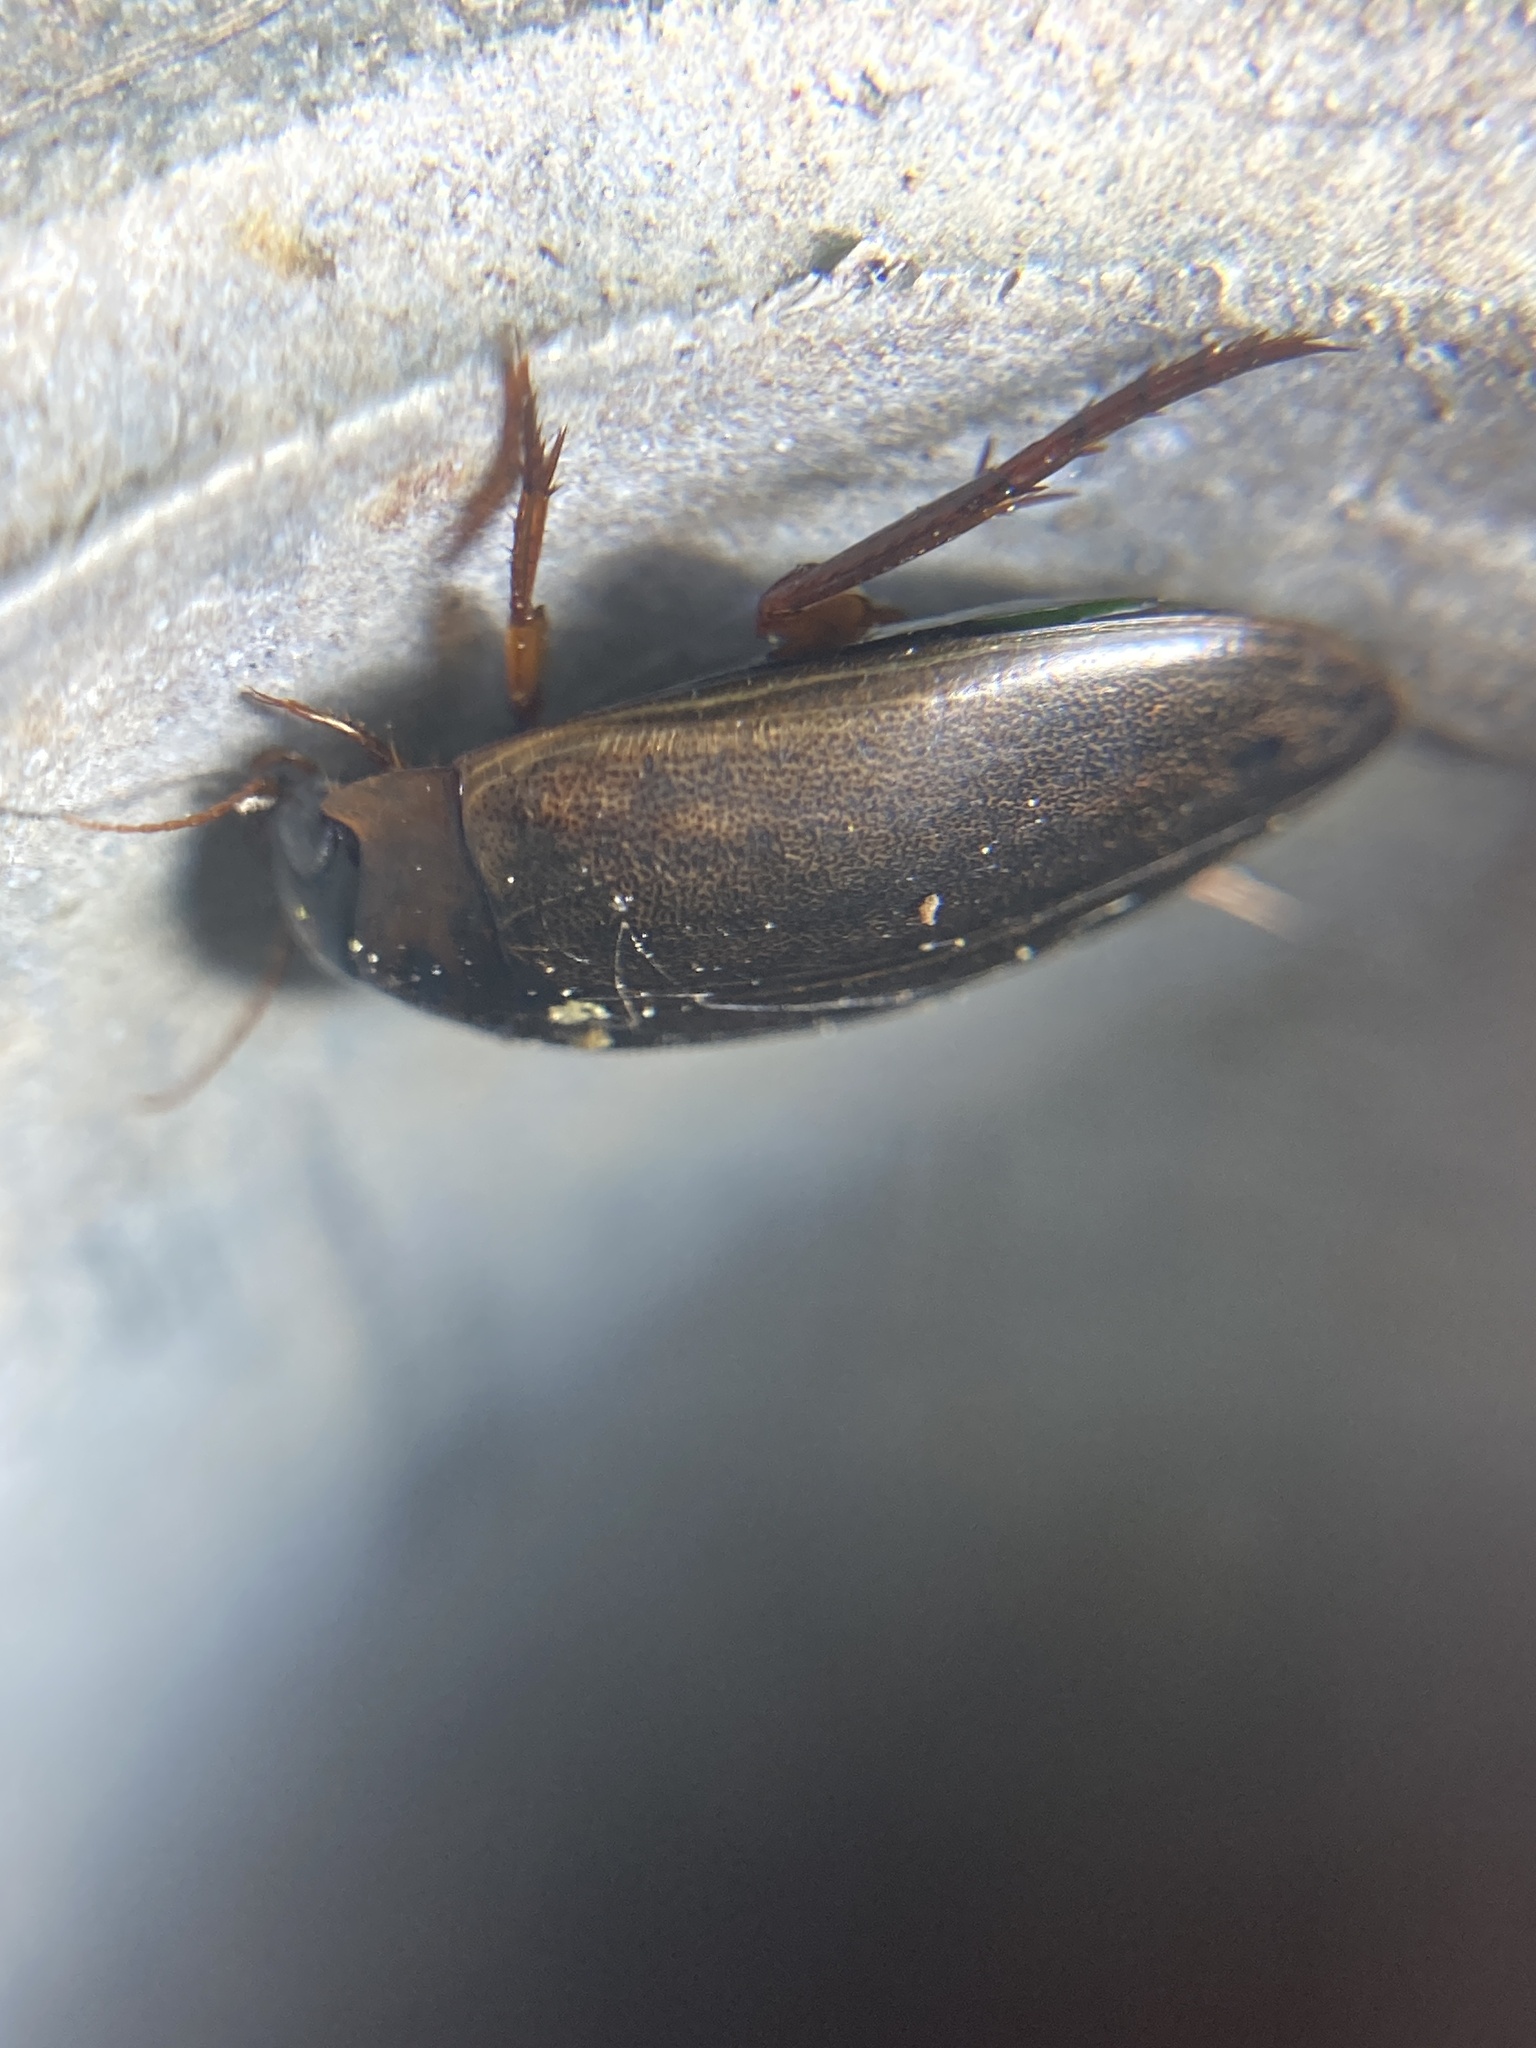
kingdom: Animalia
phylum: Arthropoda
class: Insecta
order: Coleoptera
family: Dytiscidae
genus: Rhantus
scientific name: Rhantus suturalis
